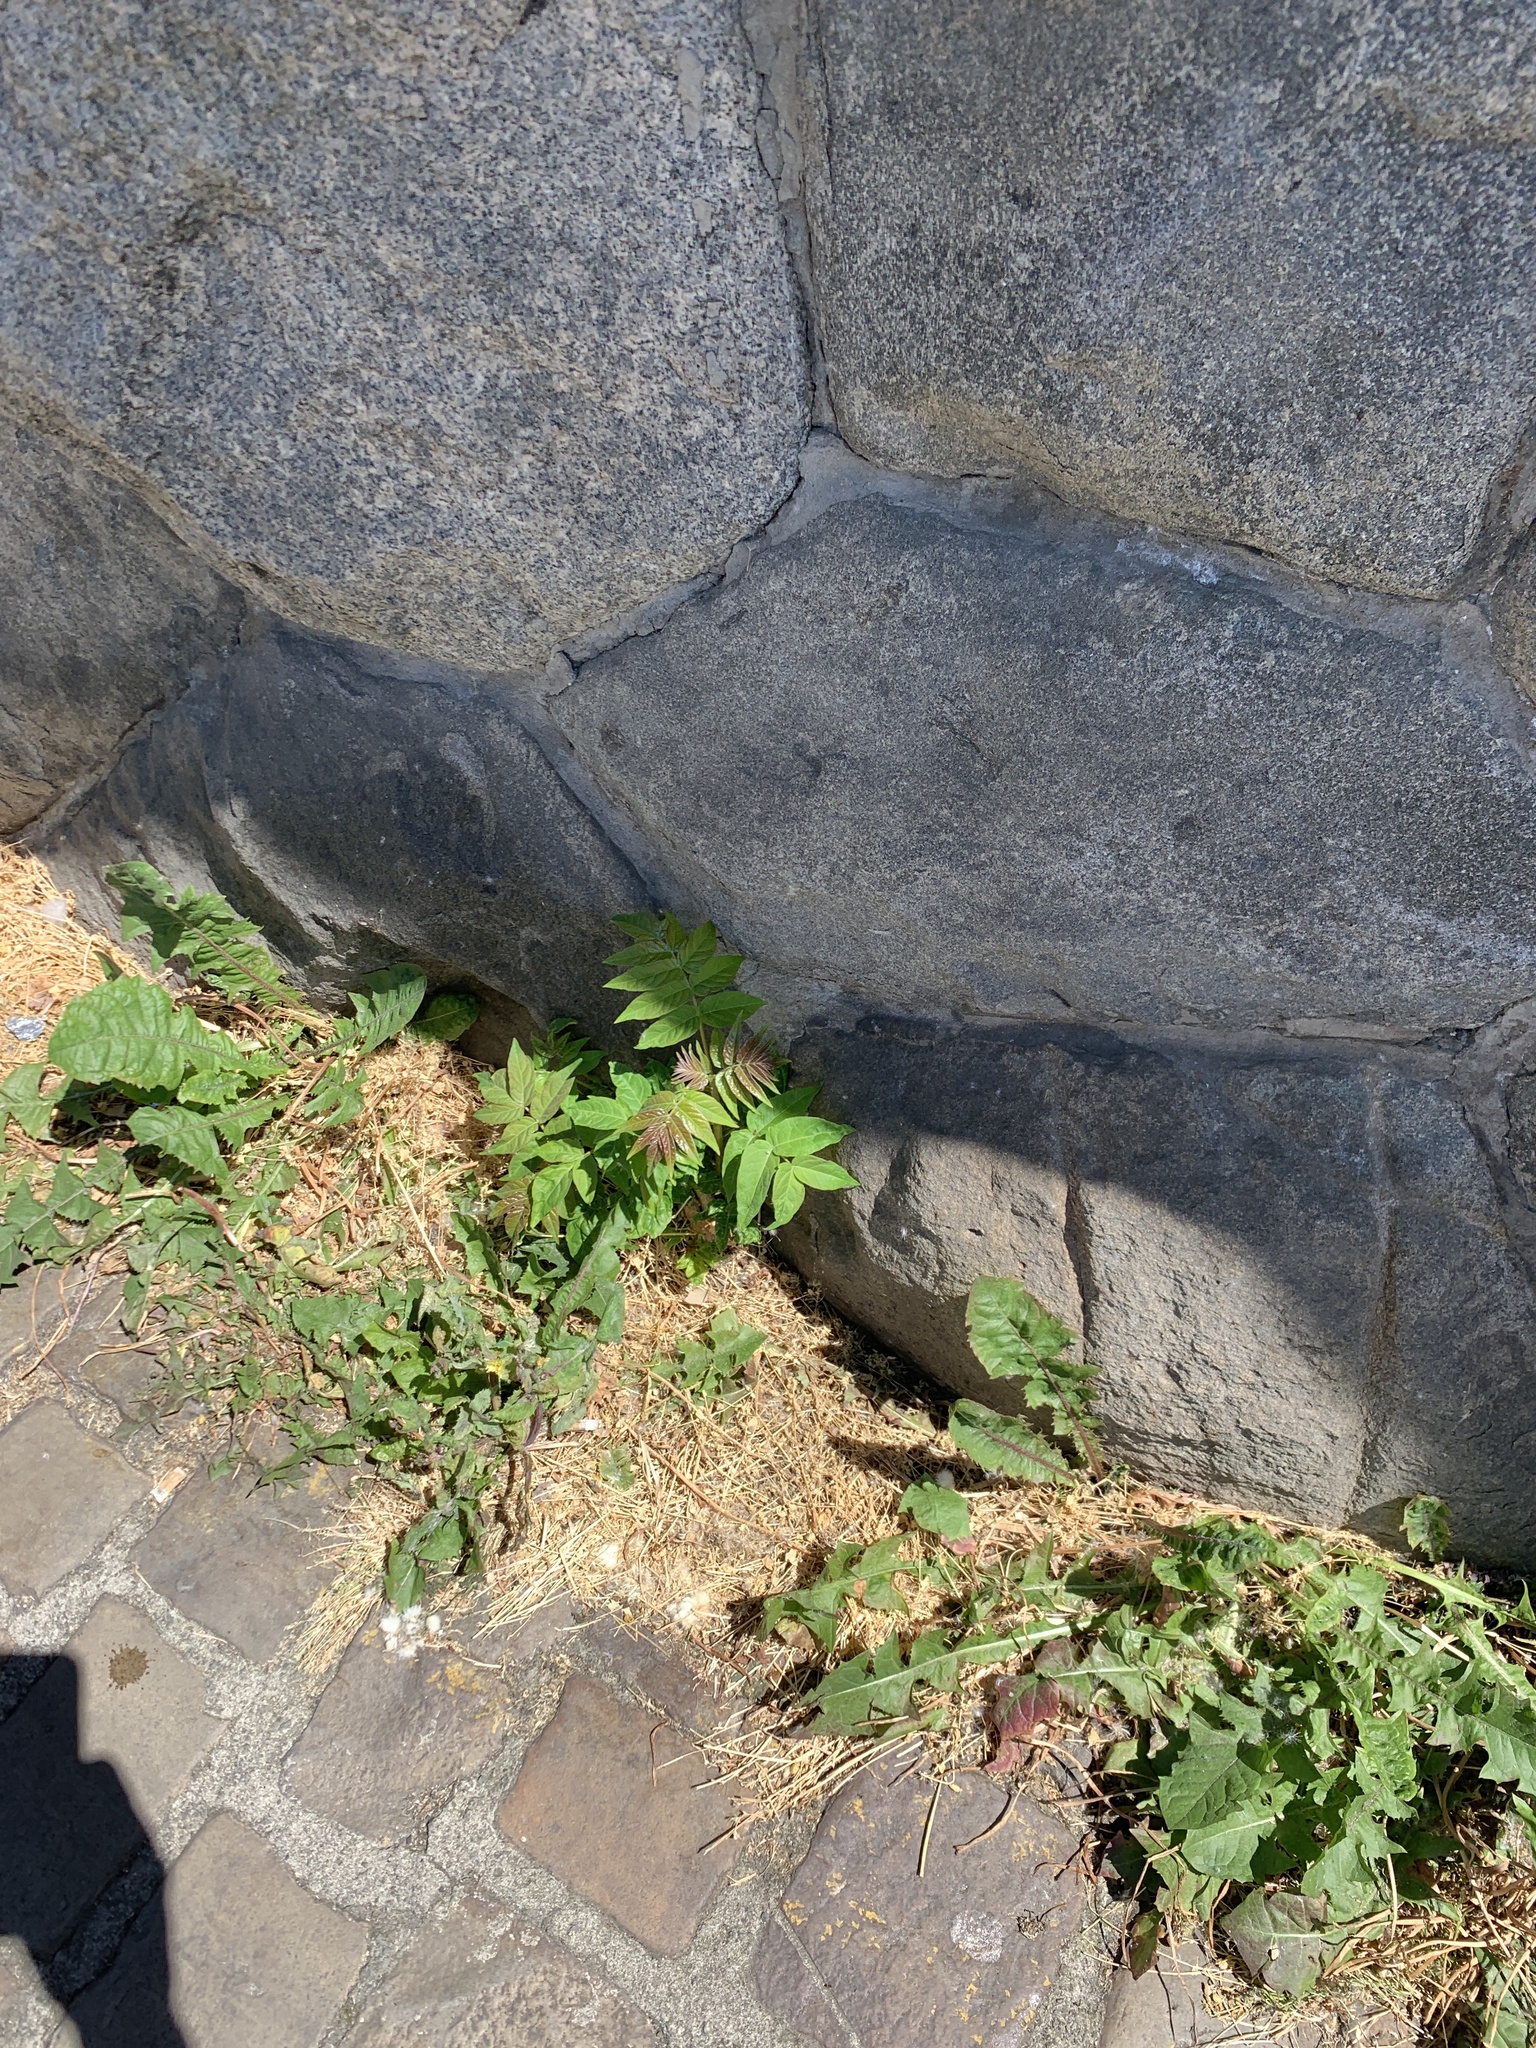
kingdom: Plantae
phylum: Tracheophyta
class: Magnoliopsida
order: Sapindales
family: Simaroubaceae
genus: Ailanthus
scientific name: Ailanthus altissima
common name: Tree-of-heaven
